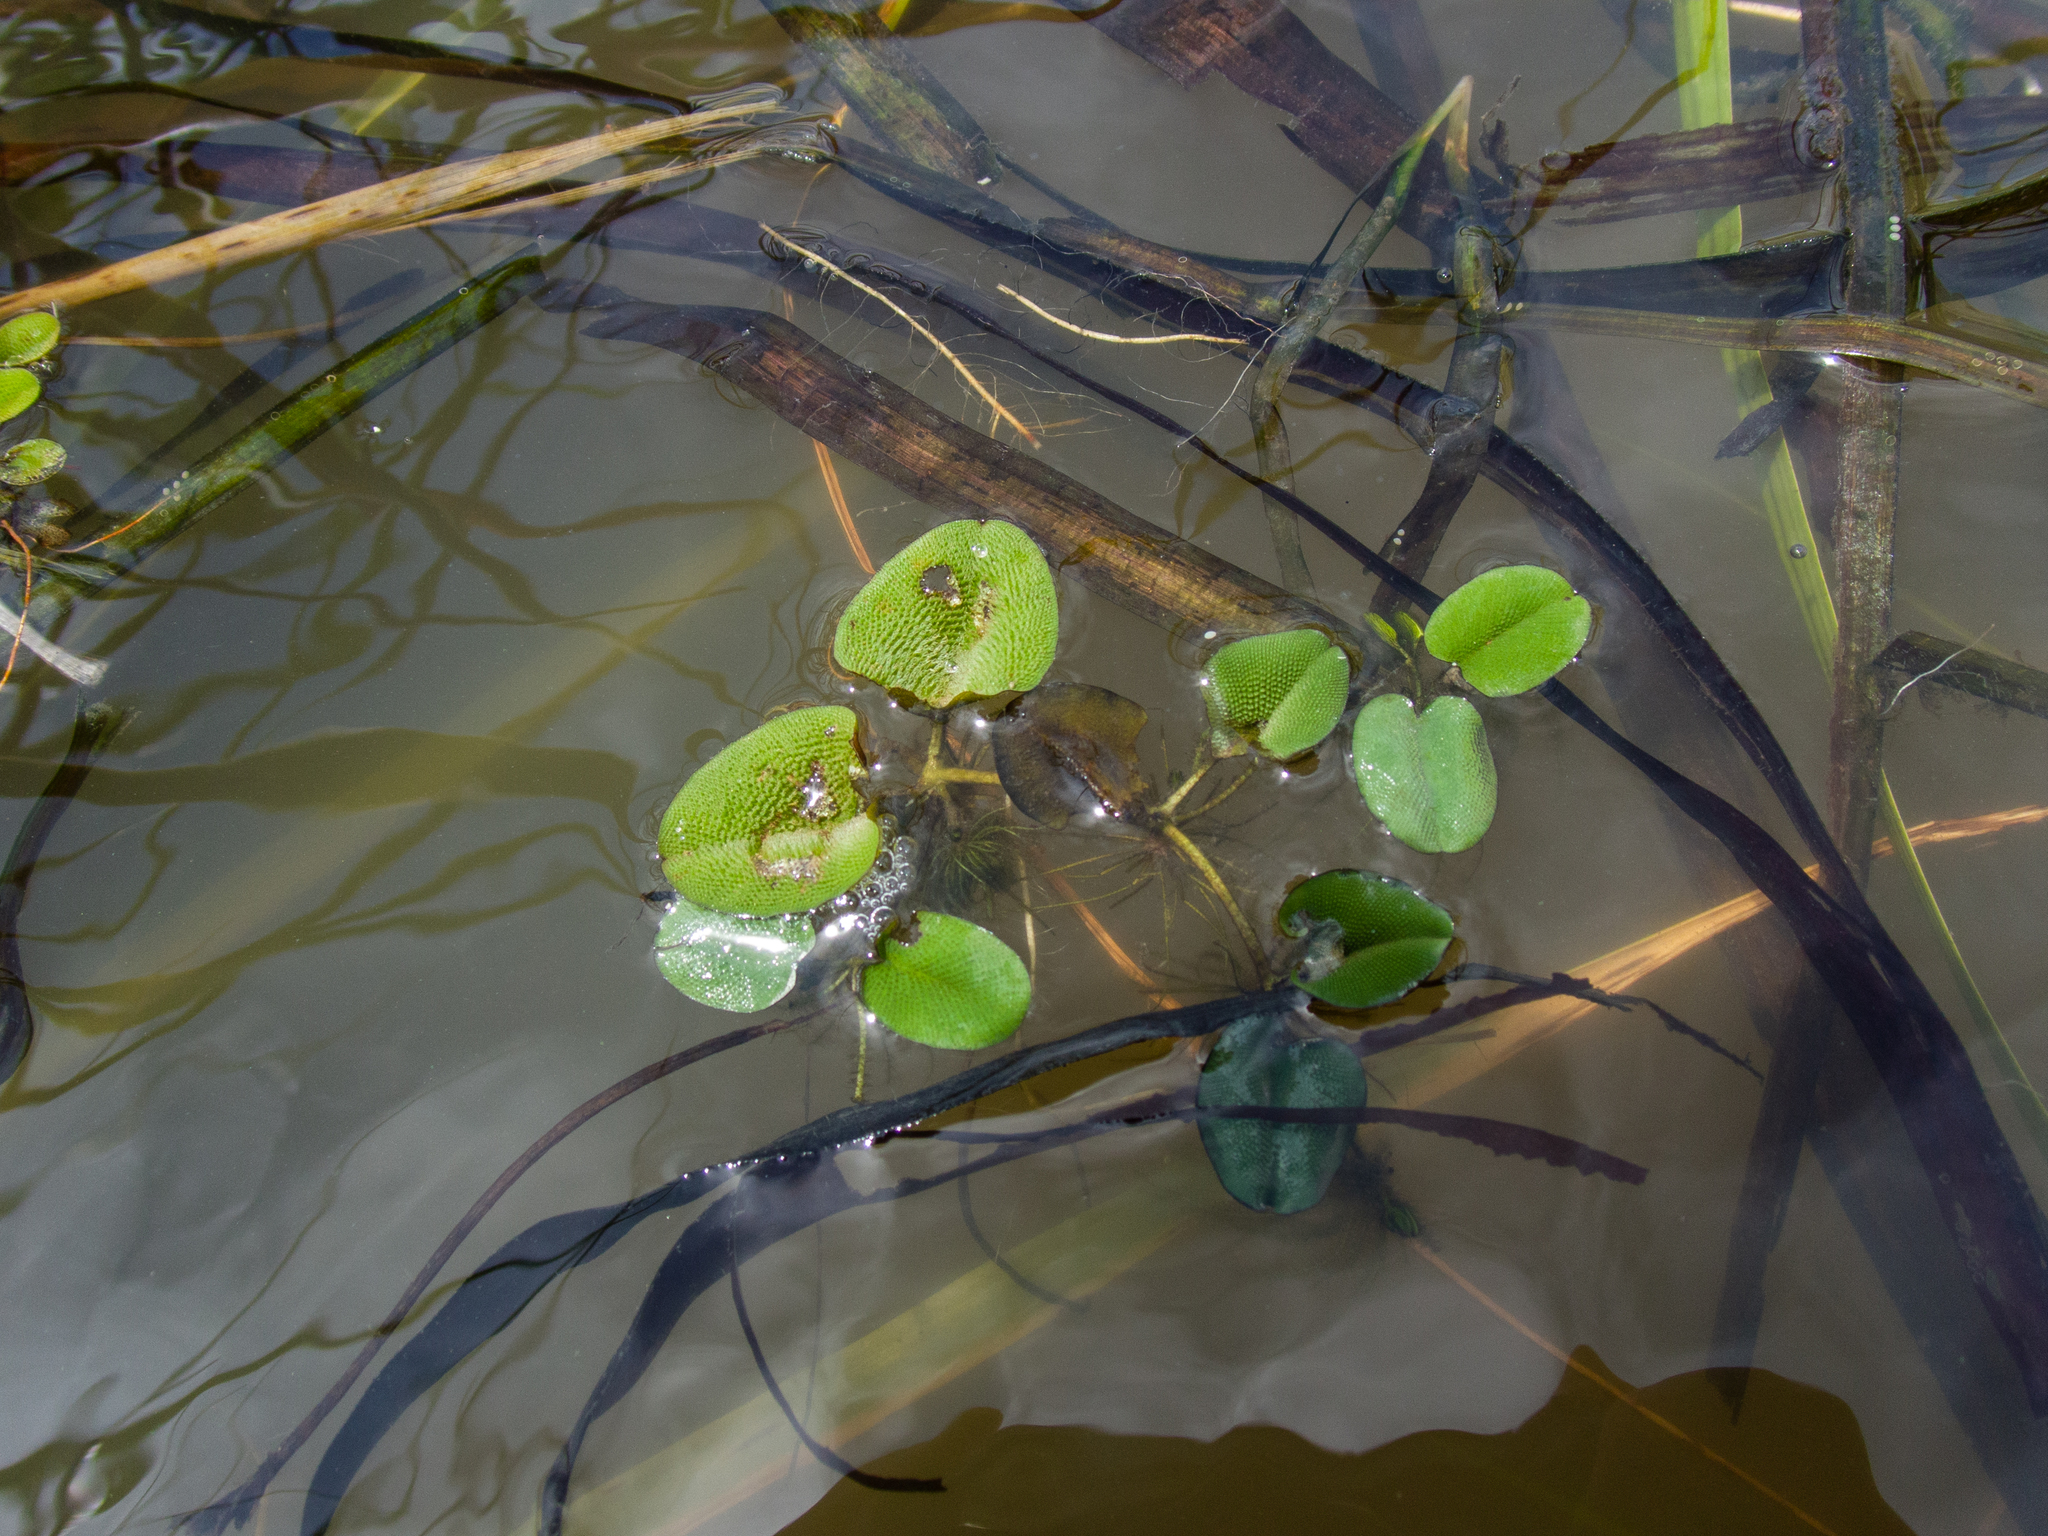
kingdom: Plantae
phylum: Tracheophyta
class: Polypodiopsida
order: Salviniales
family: Salviniaceae
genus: Salvinia
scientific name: Salvinia molesta
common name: Kariba weed
